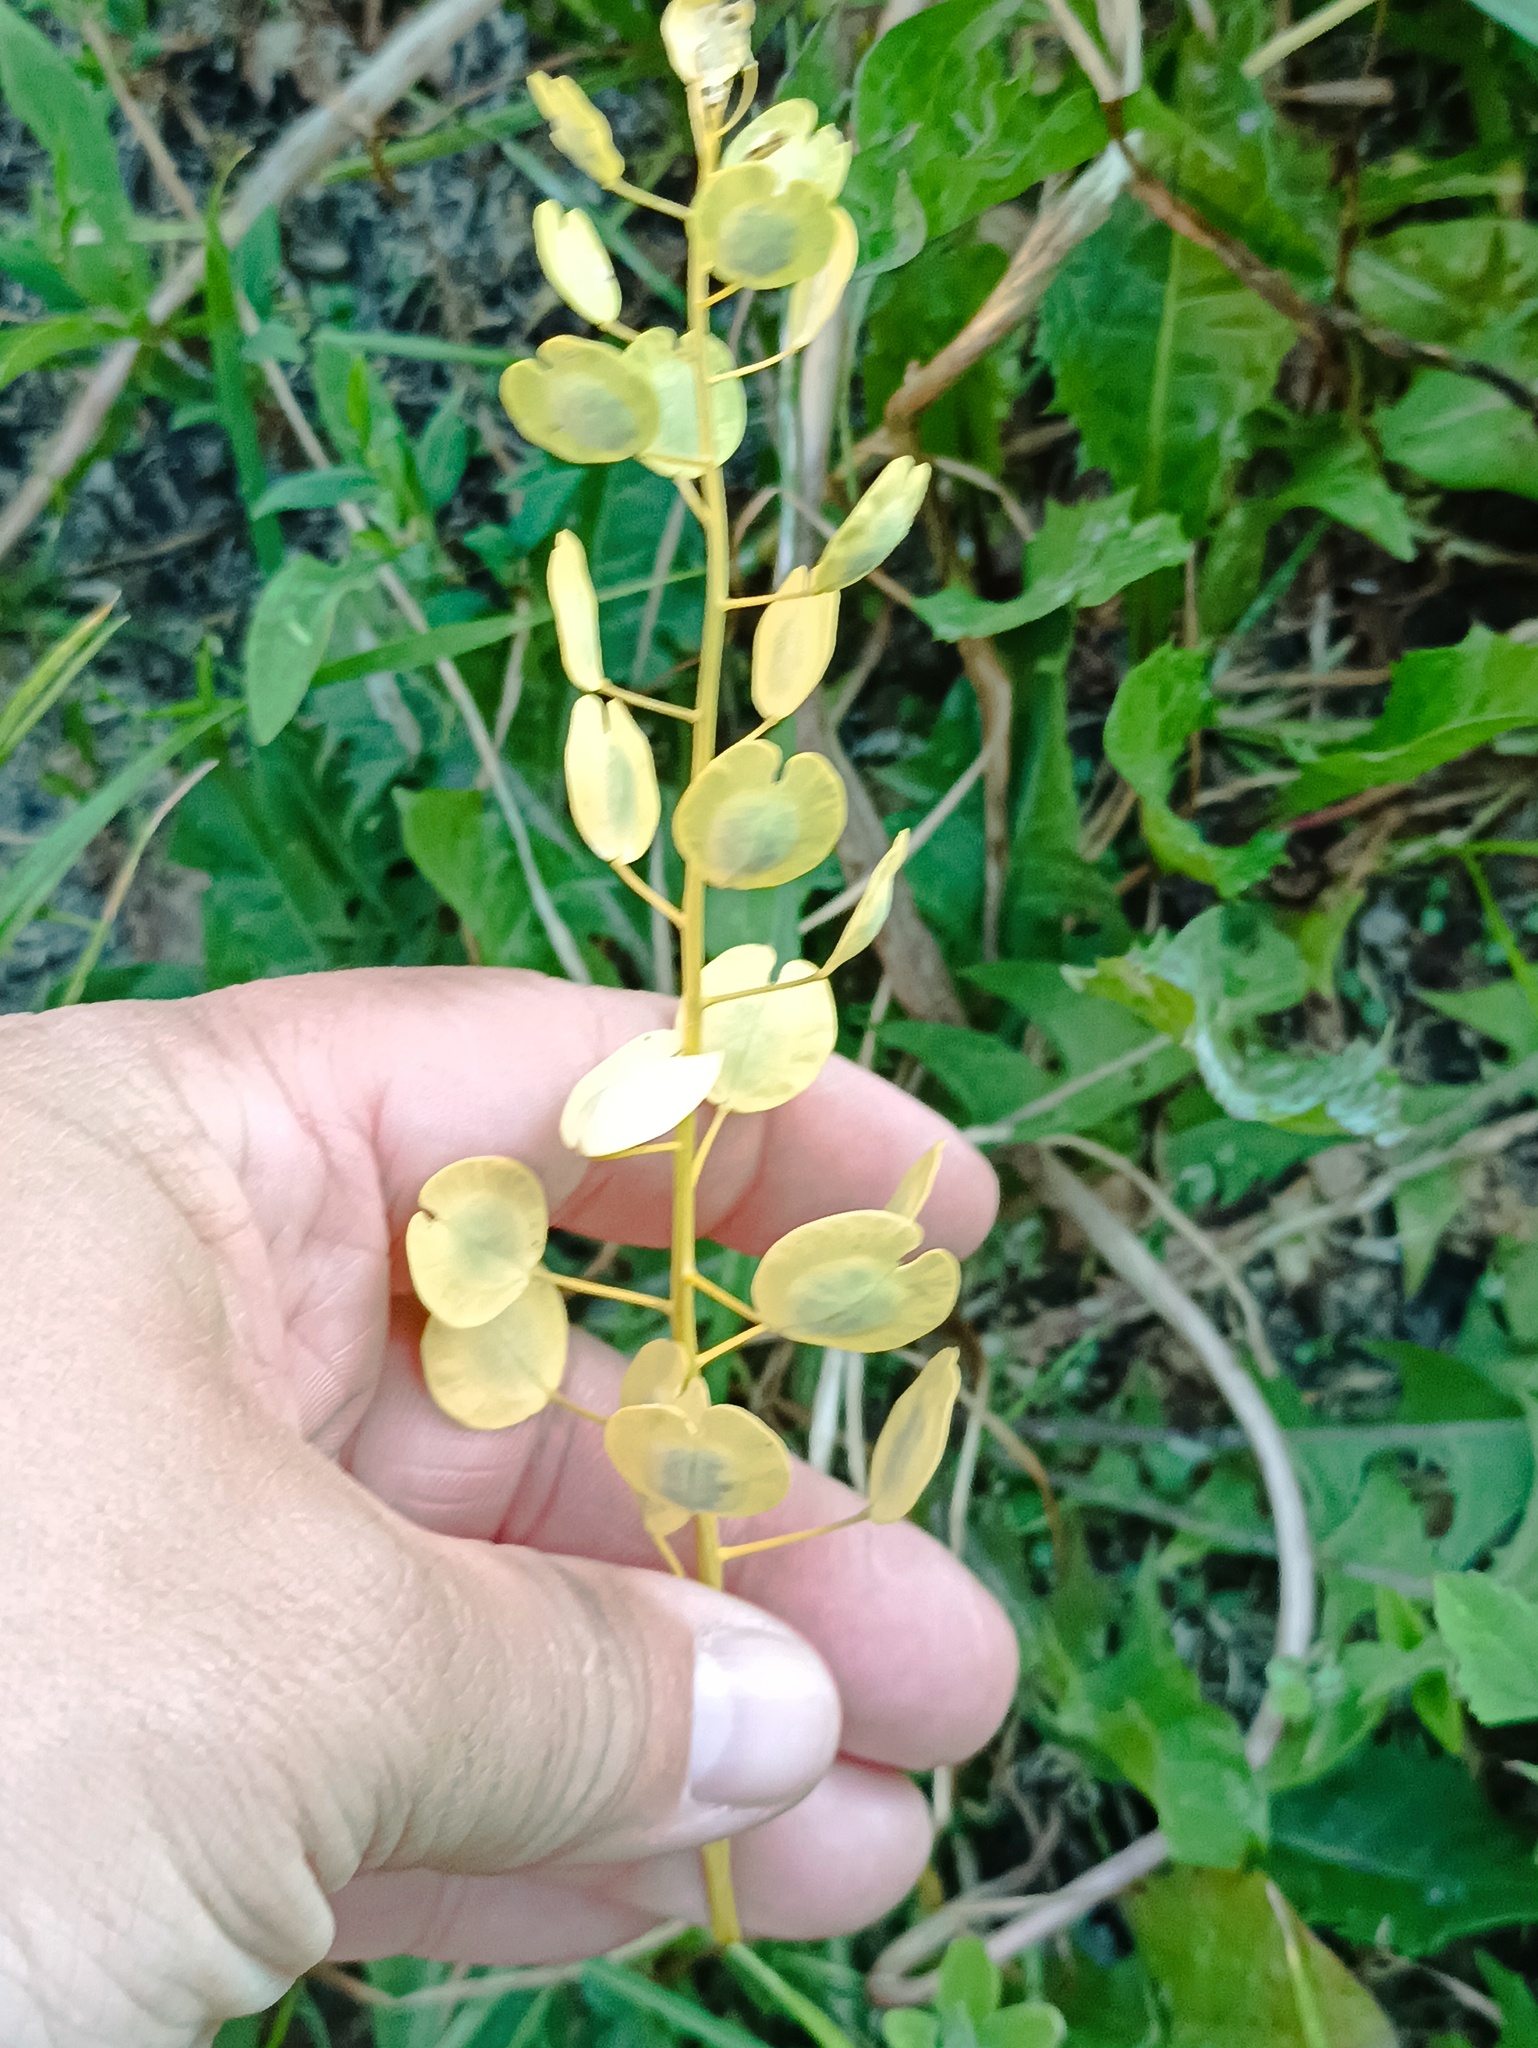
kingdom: Plantae
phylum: Tracheophyta
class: Magnoliopsida
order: Brassicales
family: Brassicaceae
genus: Thlaspi
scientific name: Thlaspi arvense
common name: Field pennycress
